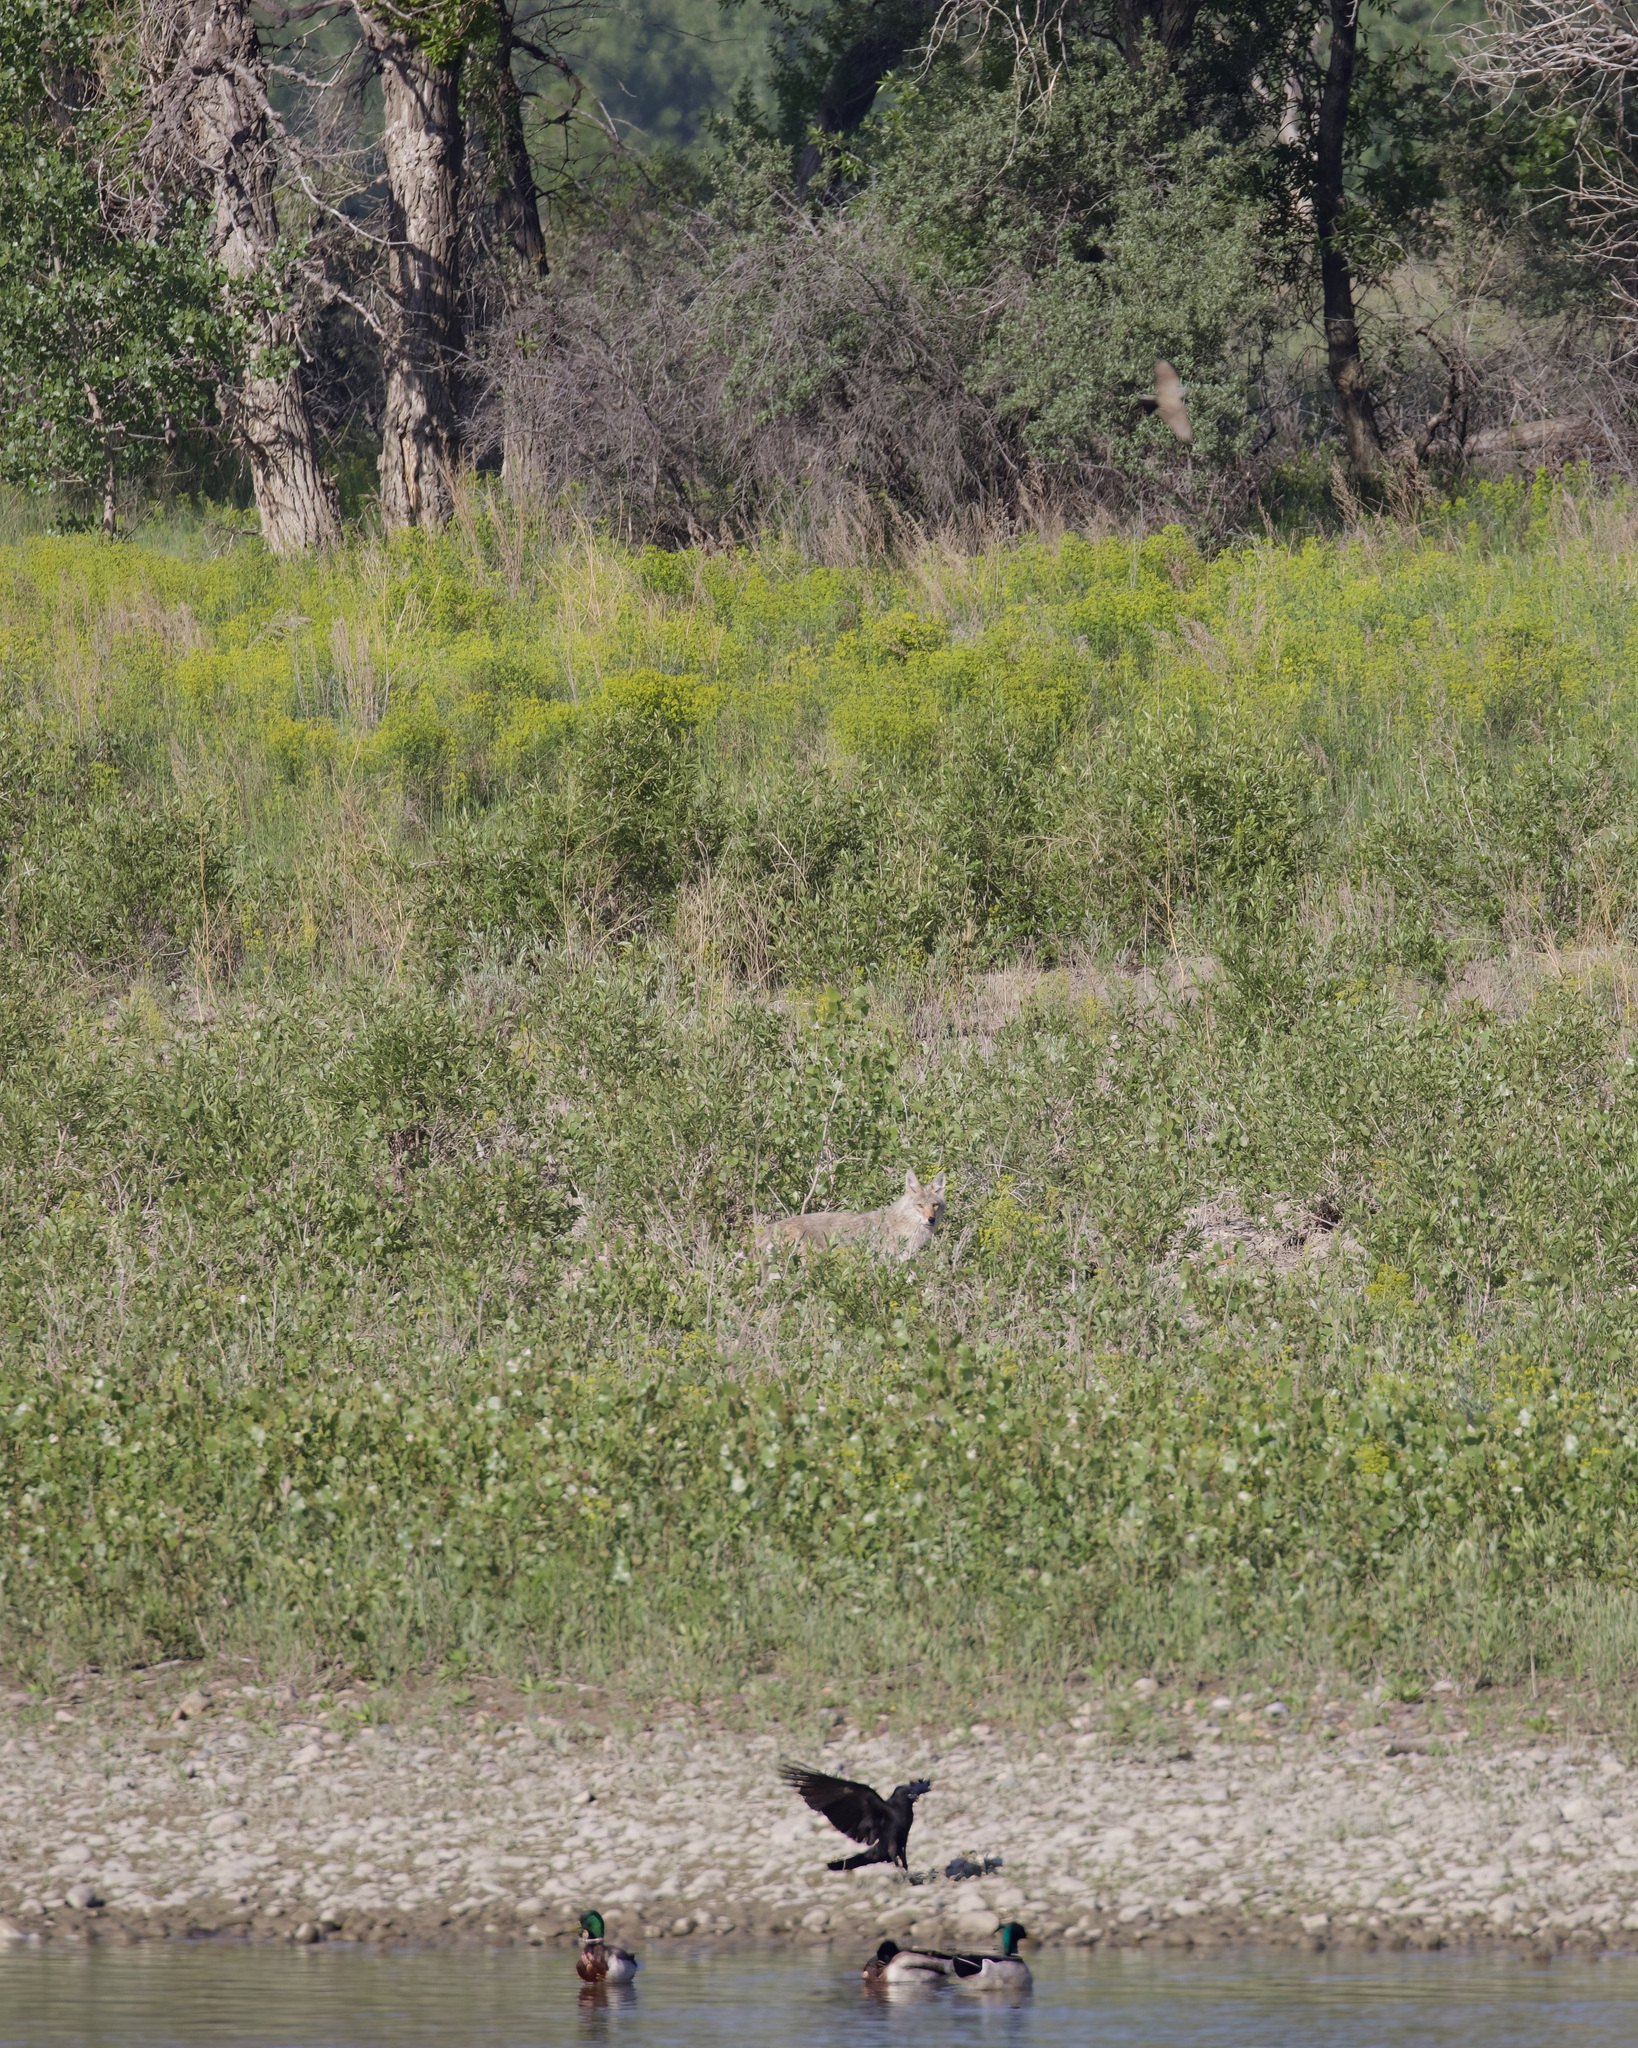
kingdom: Animalia
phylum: Chordata
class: Aves
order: Passeriformes
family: Corvidae
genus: Corvus
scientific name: Corvus brachyrhynchos
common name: American crow
